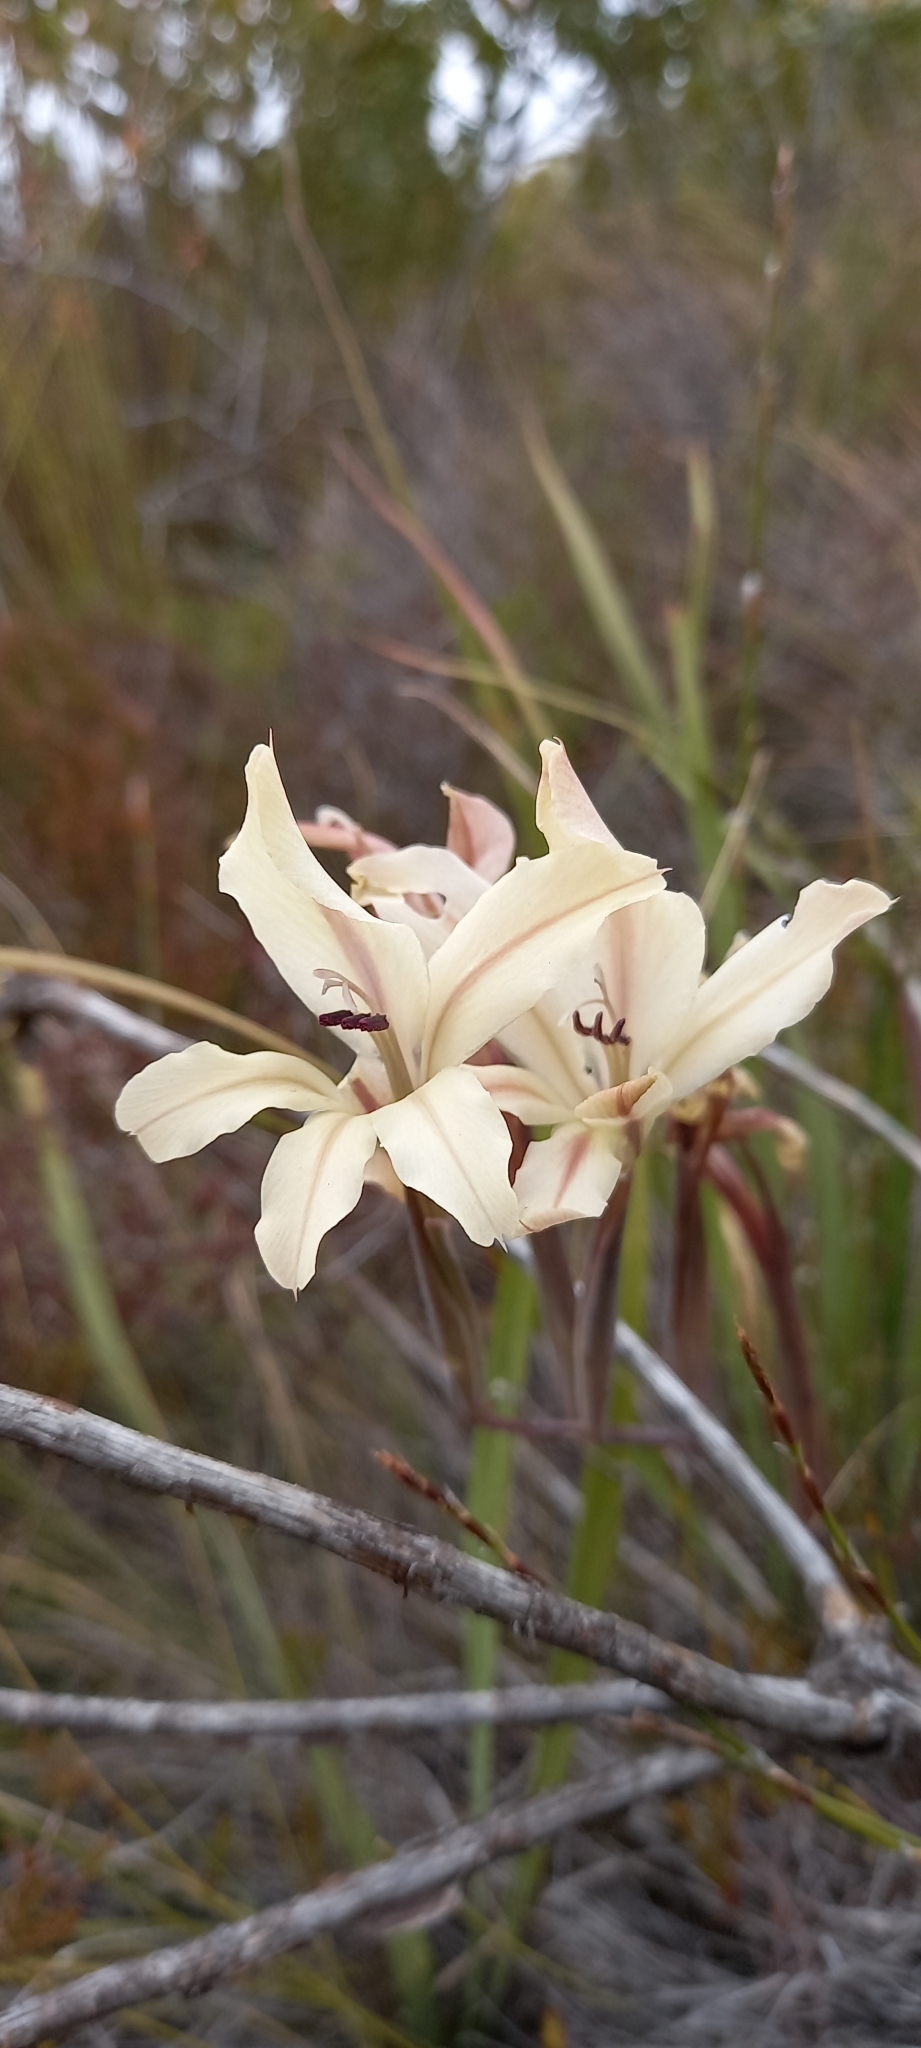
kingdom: Plantae
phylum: Tracheophyta
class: Liliopsida
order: Asparagales
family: Iridaceae
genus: Gladiolus
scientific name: Gladiolus floribundus
